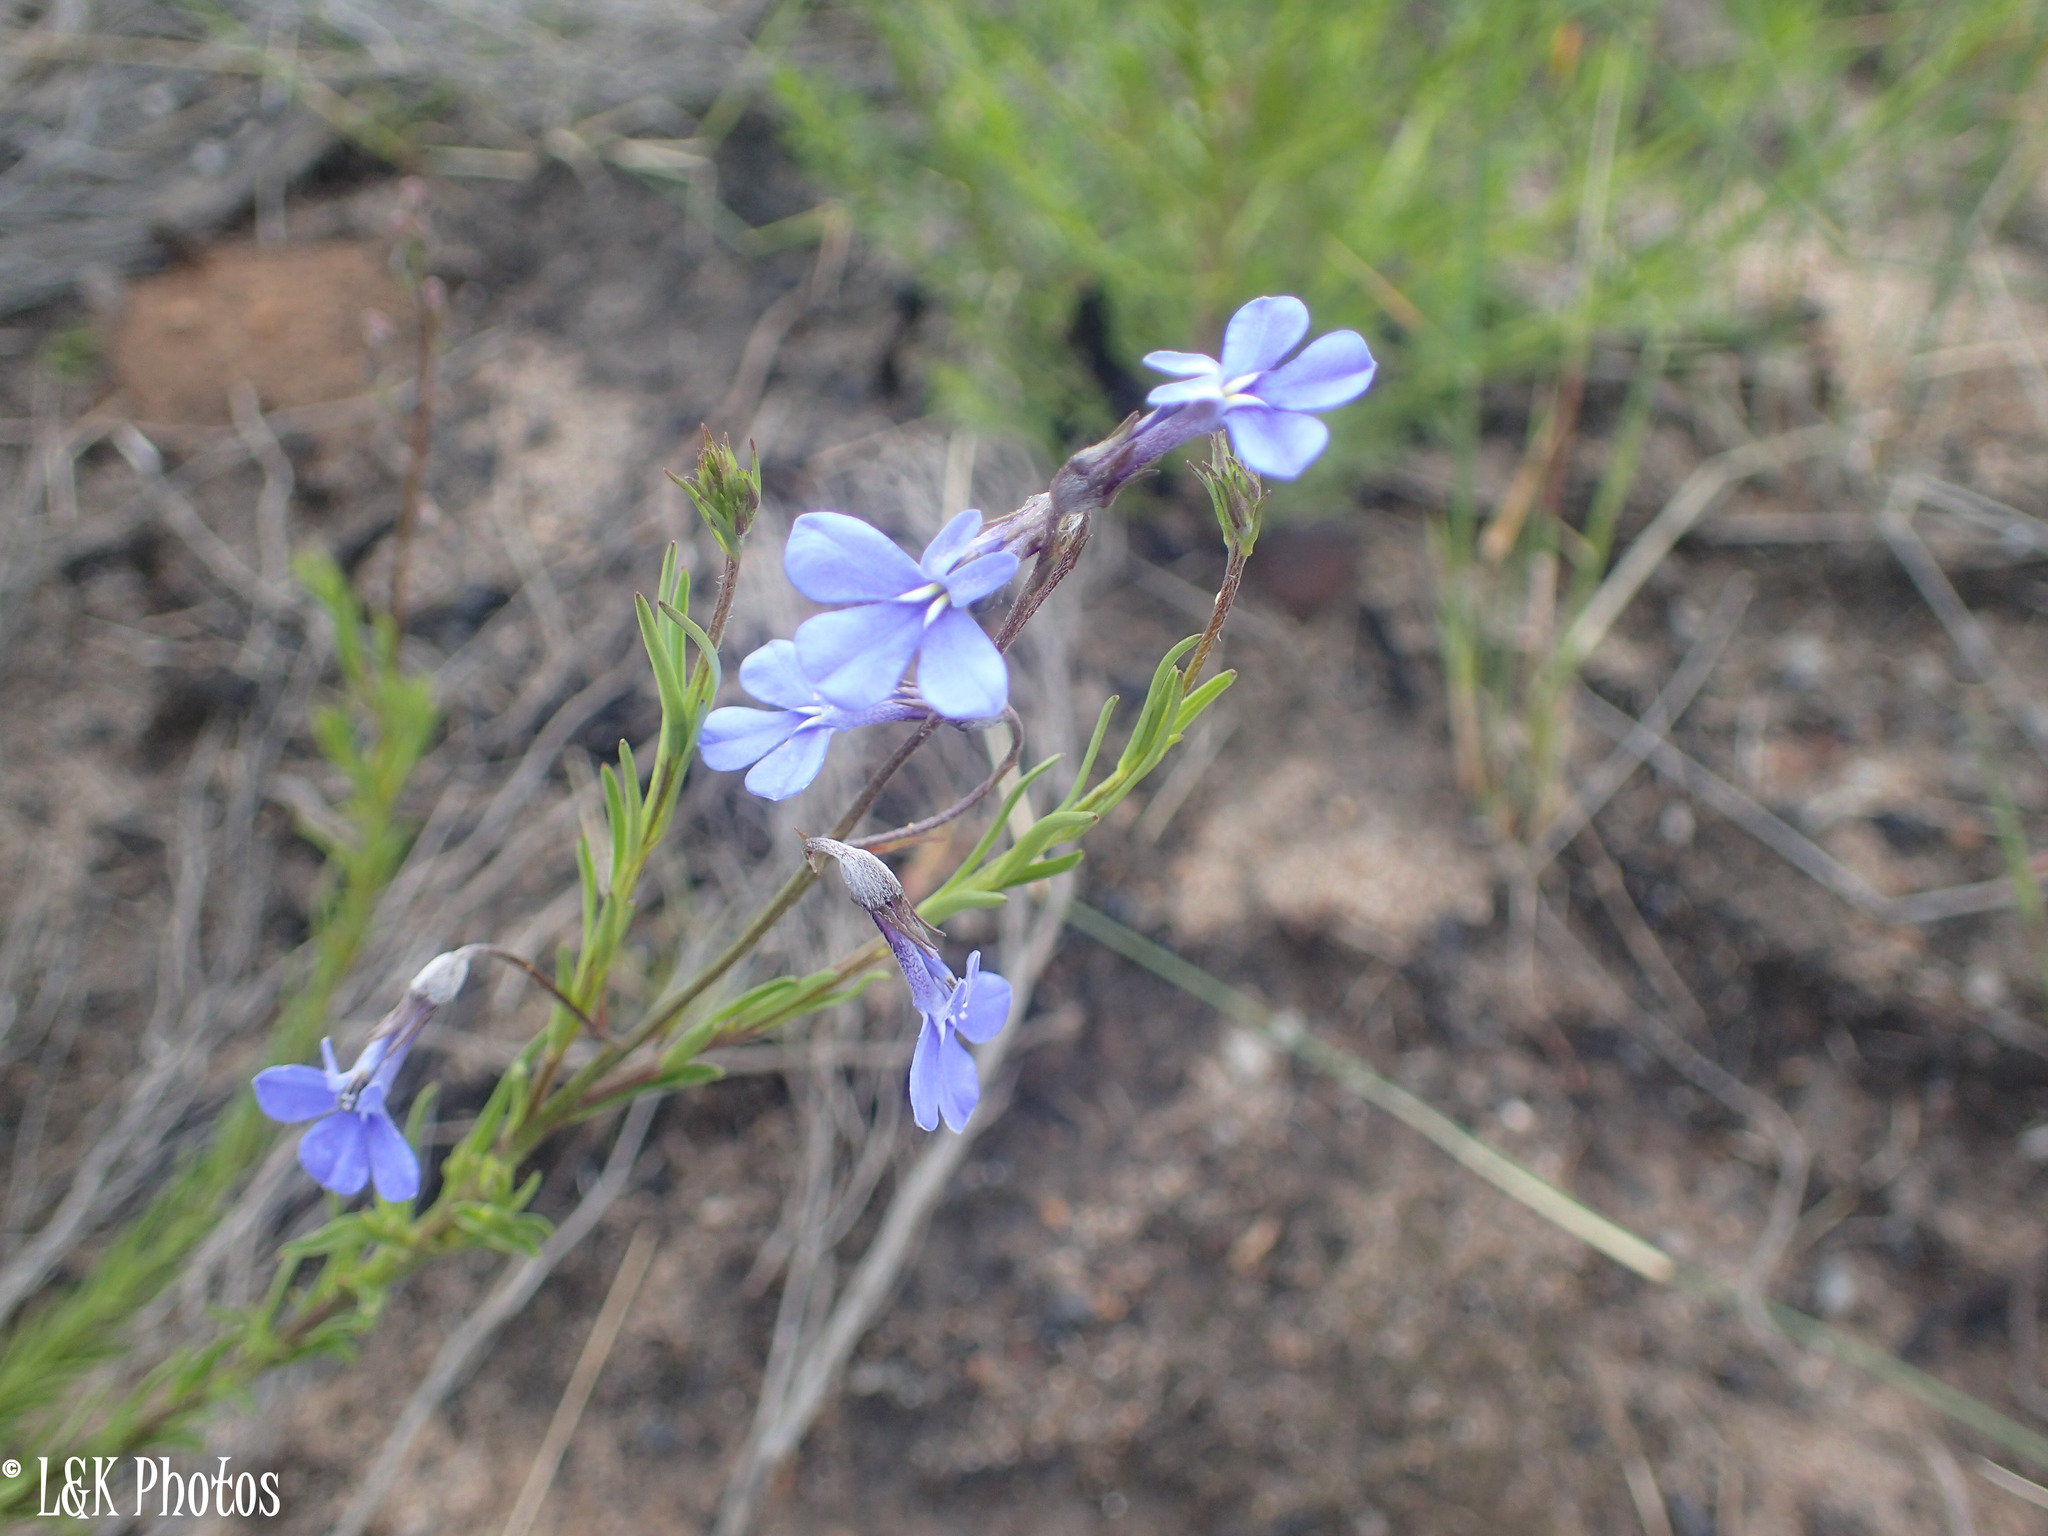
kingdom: Plantae
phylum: Tracheophyta
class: Magnoliopsida
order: Asterales
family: Campanulaceae
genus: Lobelia
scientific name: Lobelia pinifolia
